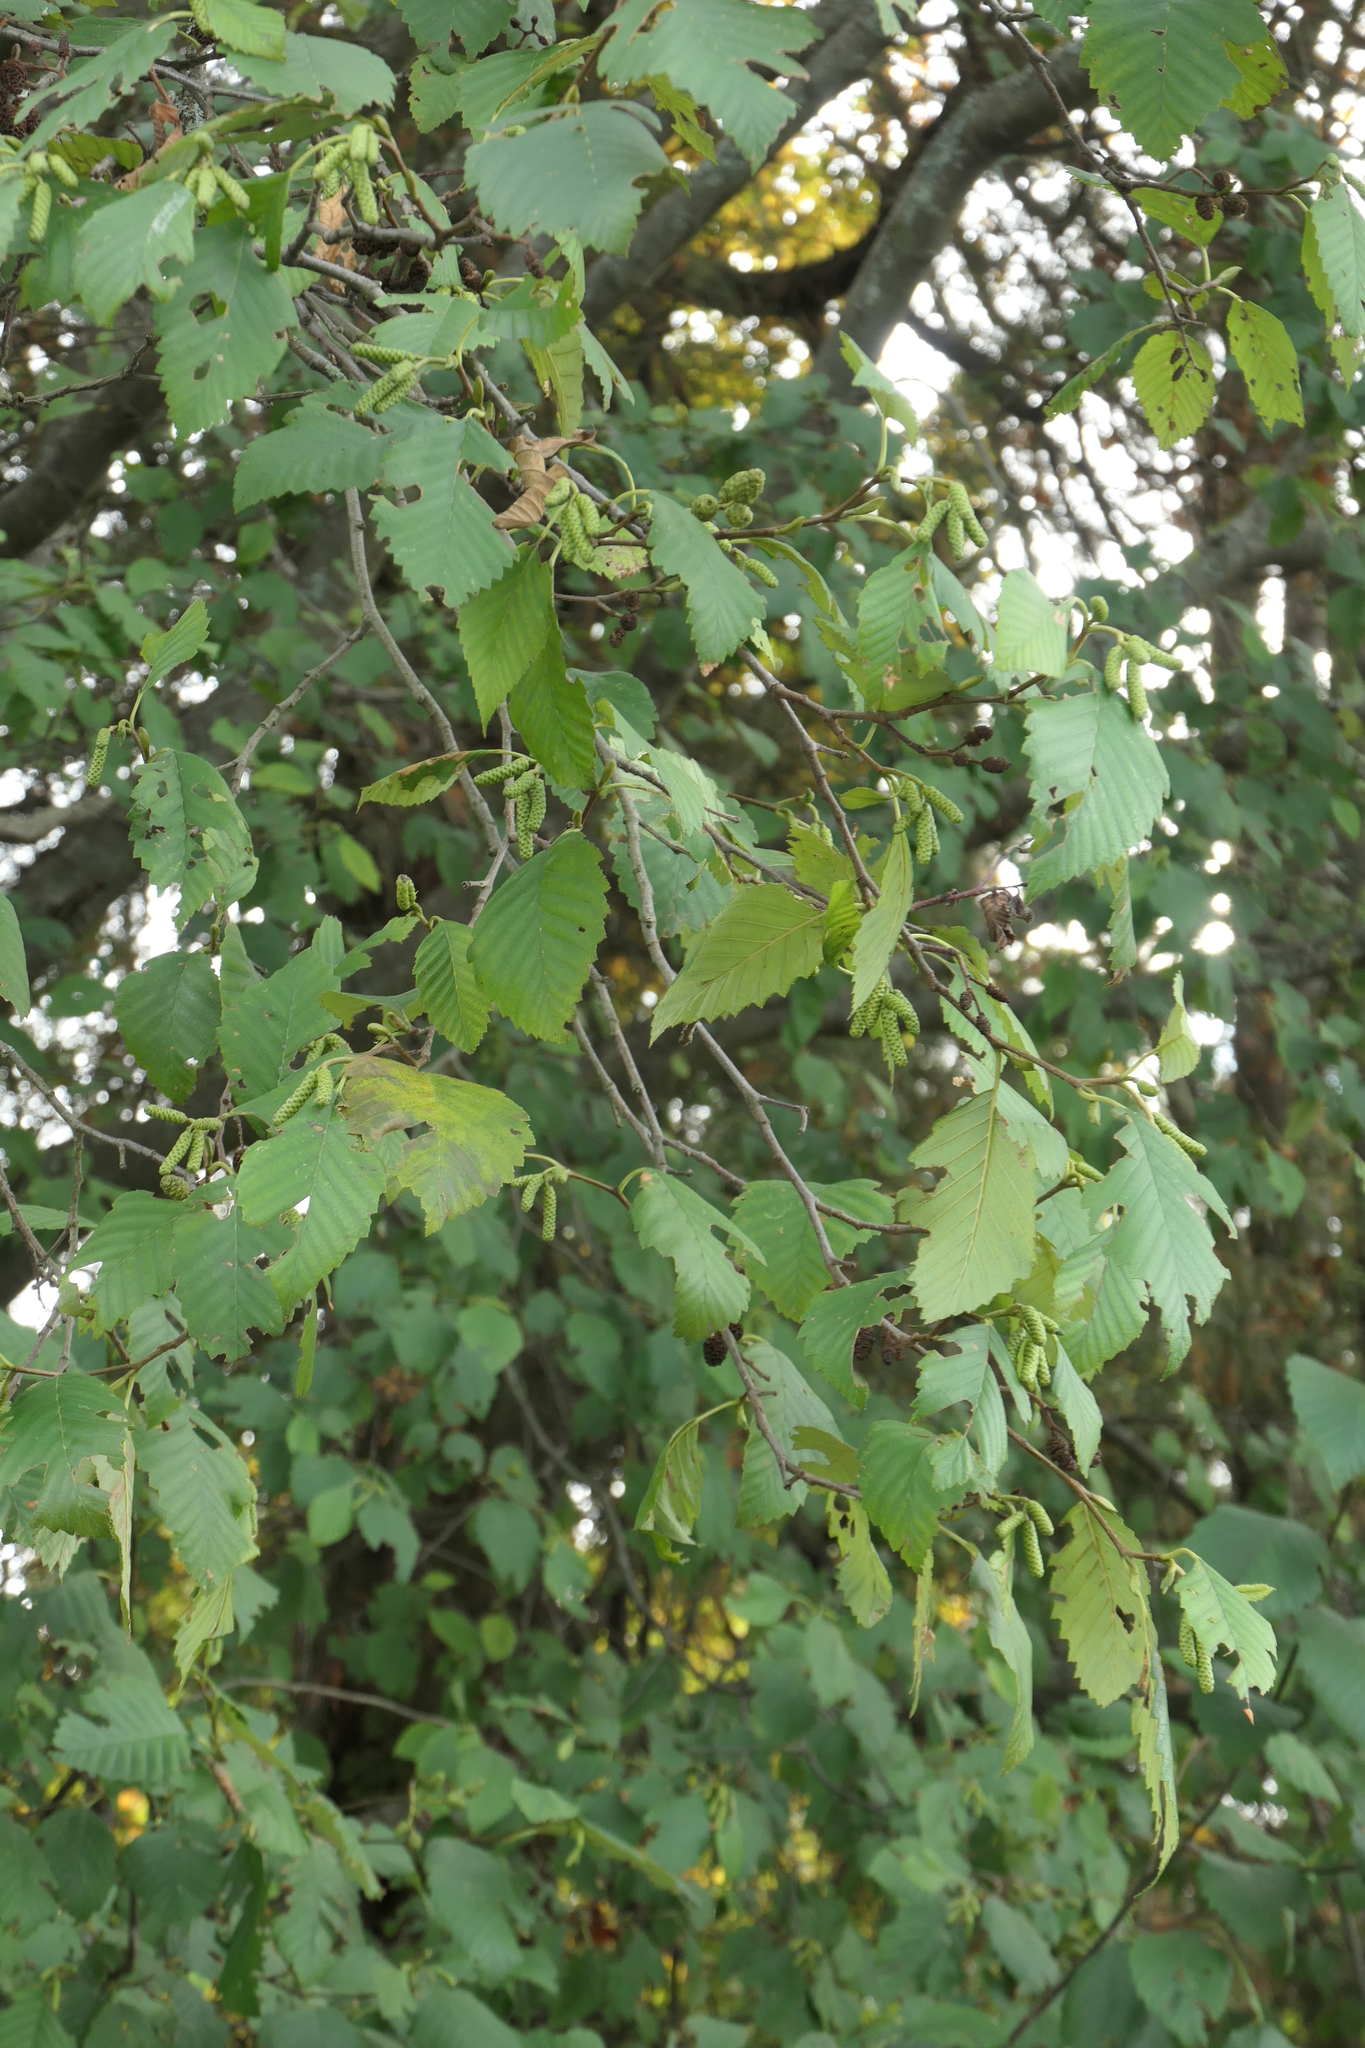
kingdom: Plantae
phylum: Tracheophyta
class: Magnoliopsida
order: Fagales
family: Betulaceae
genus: Alnus
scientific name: Alnus rubra
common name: Red alder
